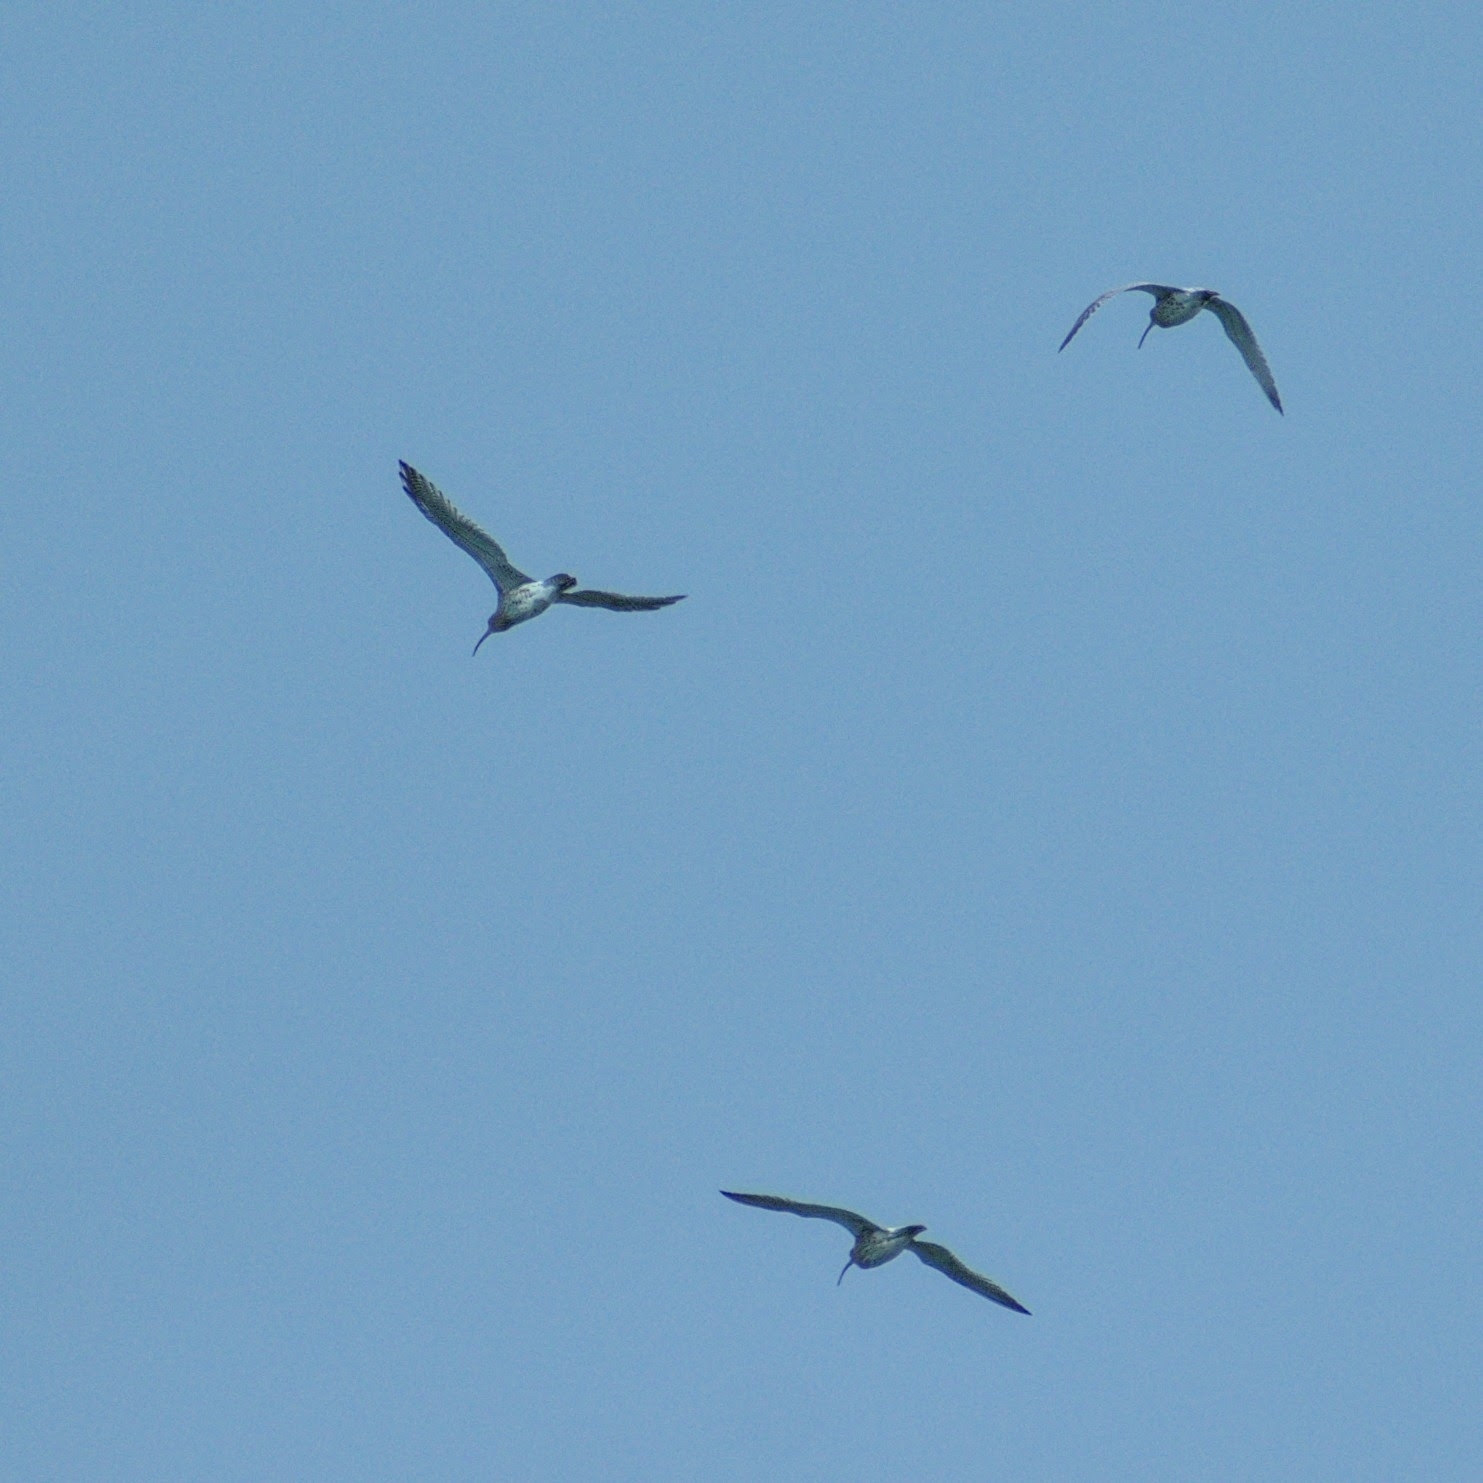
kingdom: Animalia
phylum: Chordata
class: Aves
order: Charadriiformes
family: Scolopacidae
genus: Numenius
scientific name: Numenius arquata
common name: Eurasian curlew
